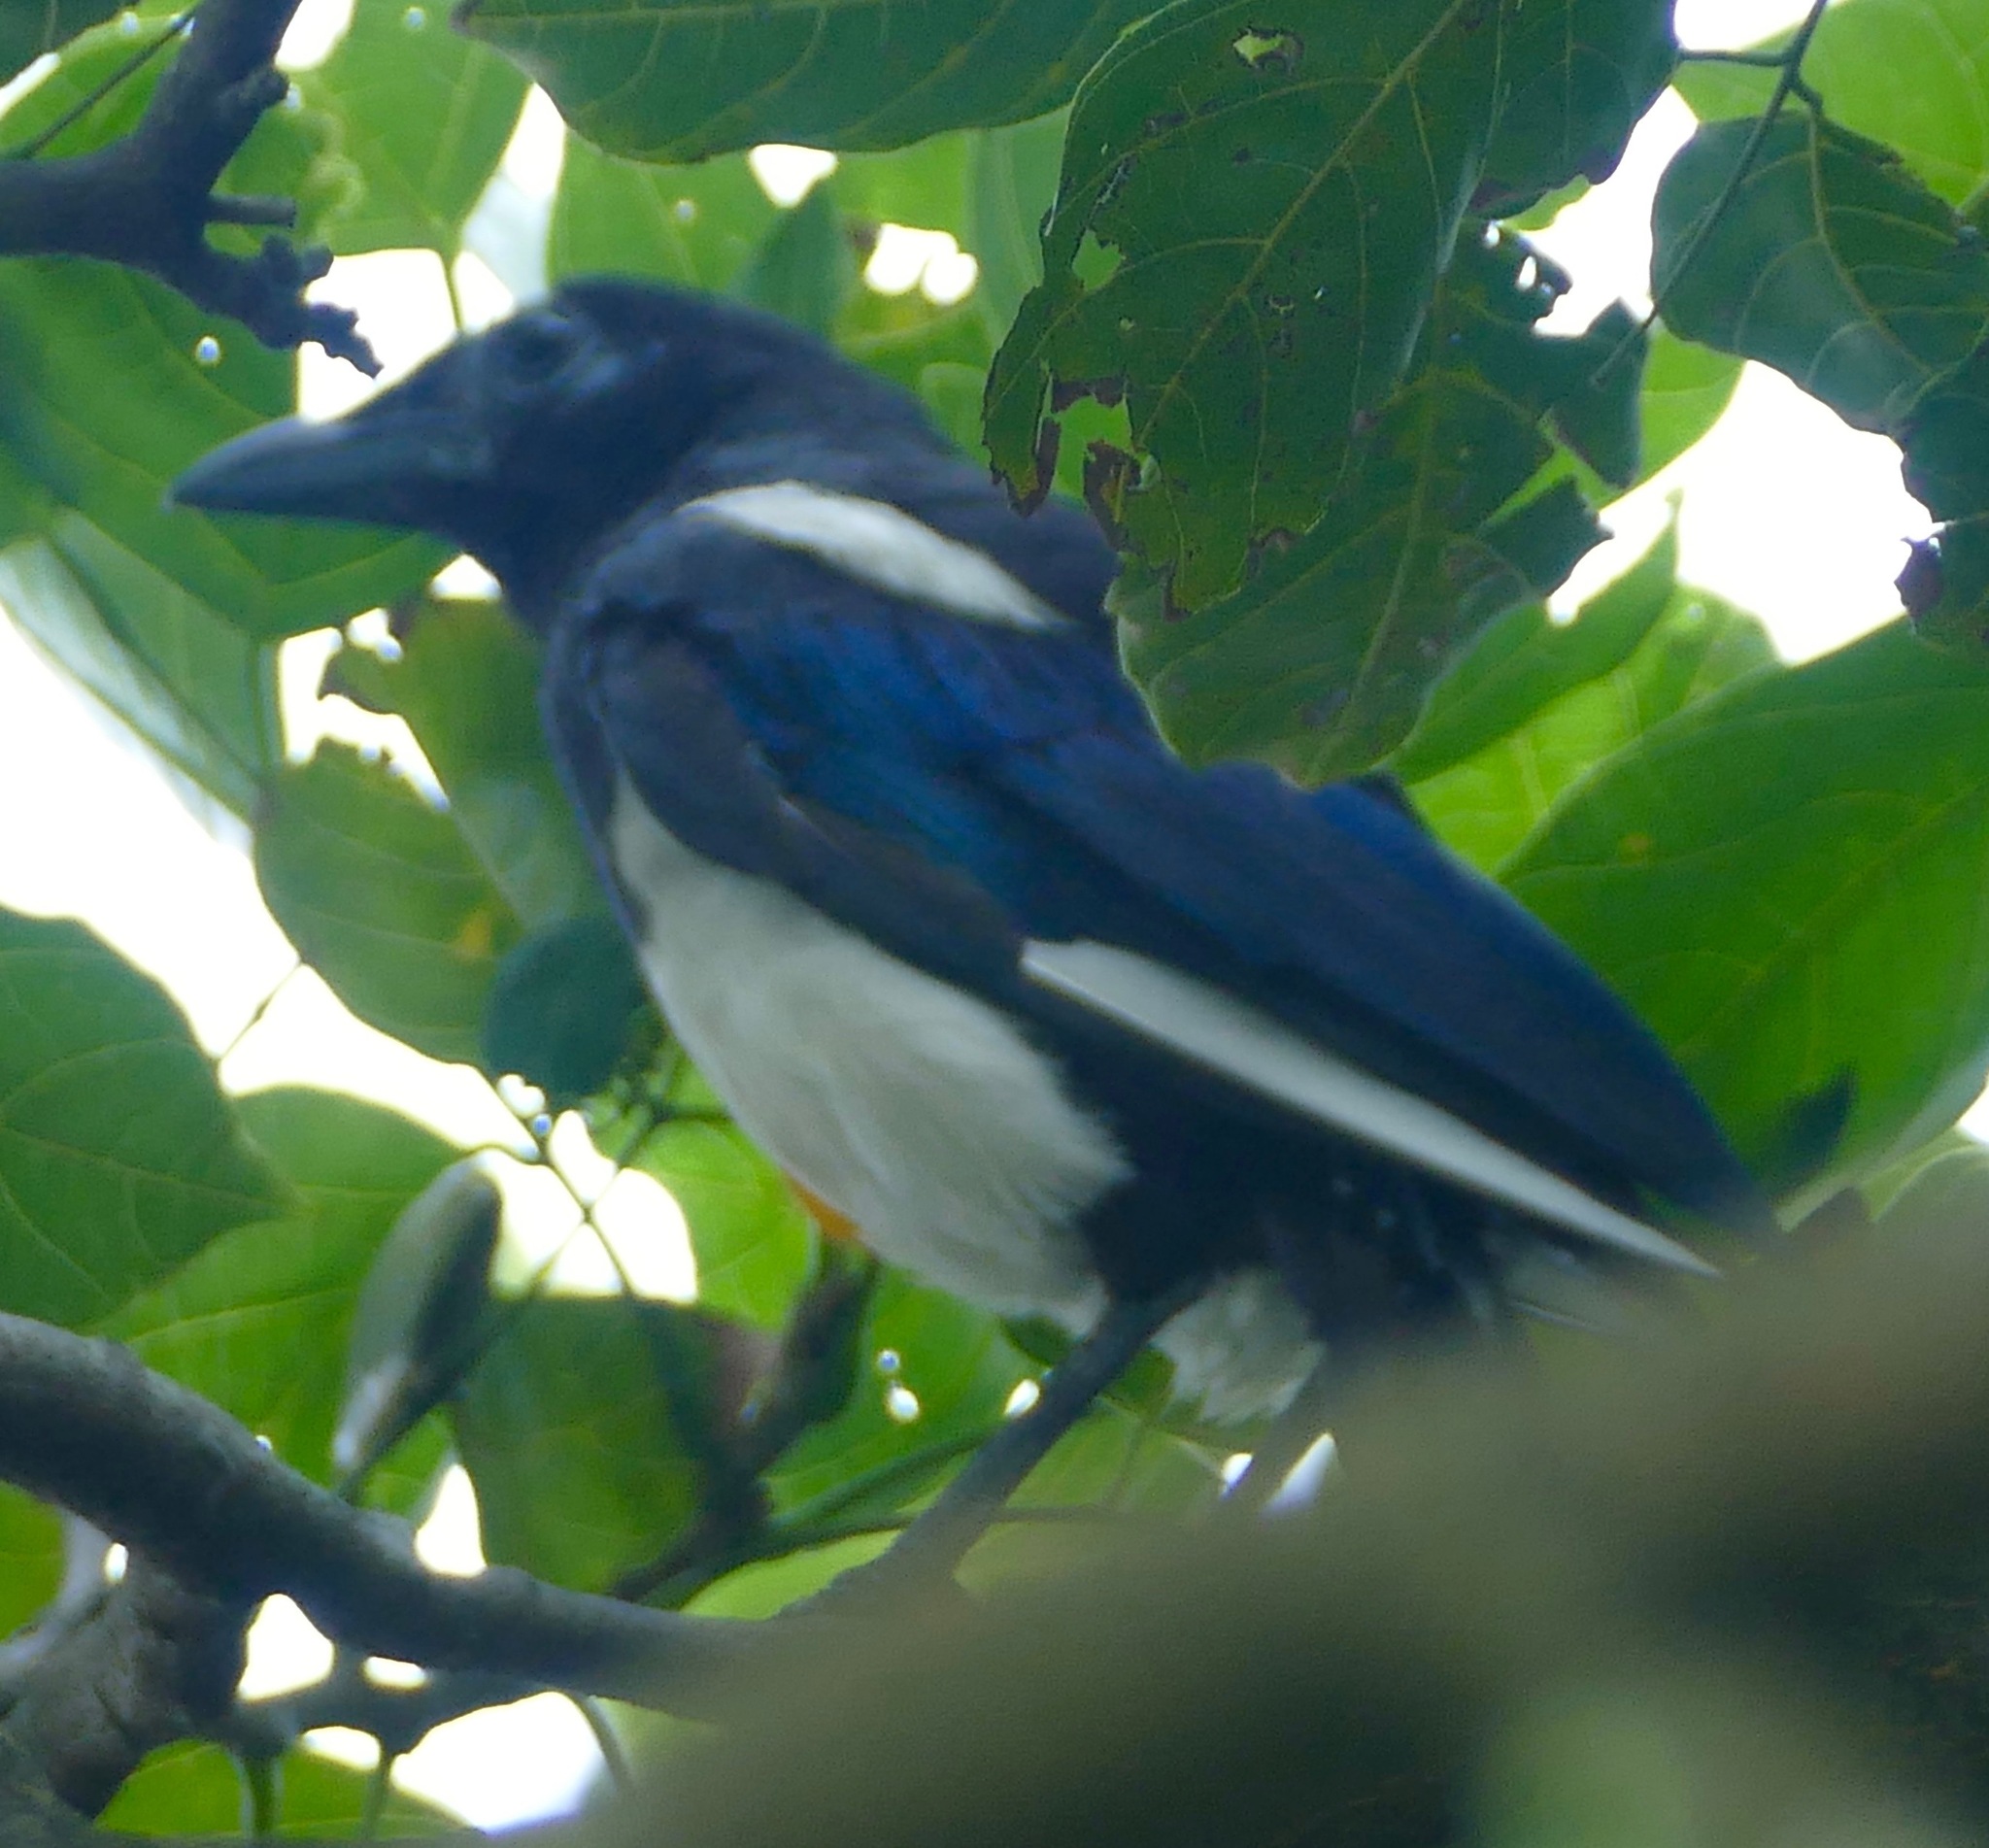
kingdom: Animalia
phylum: Chordata
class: Aves
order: Passeriformes
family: Corvidae
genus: Pica
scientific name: Pica serica
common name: Oriental magpie
